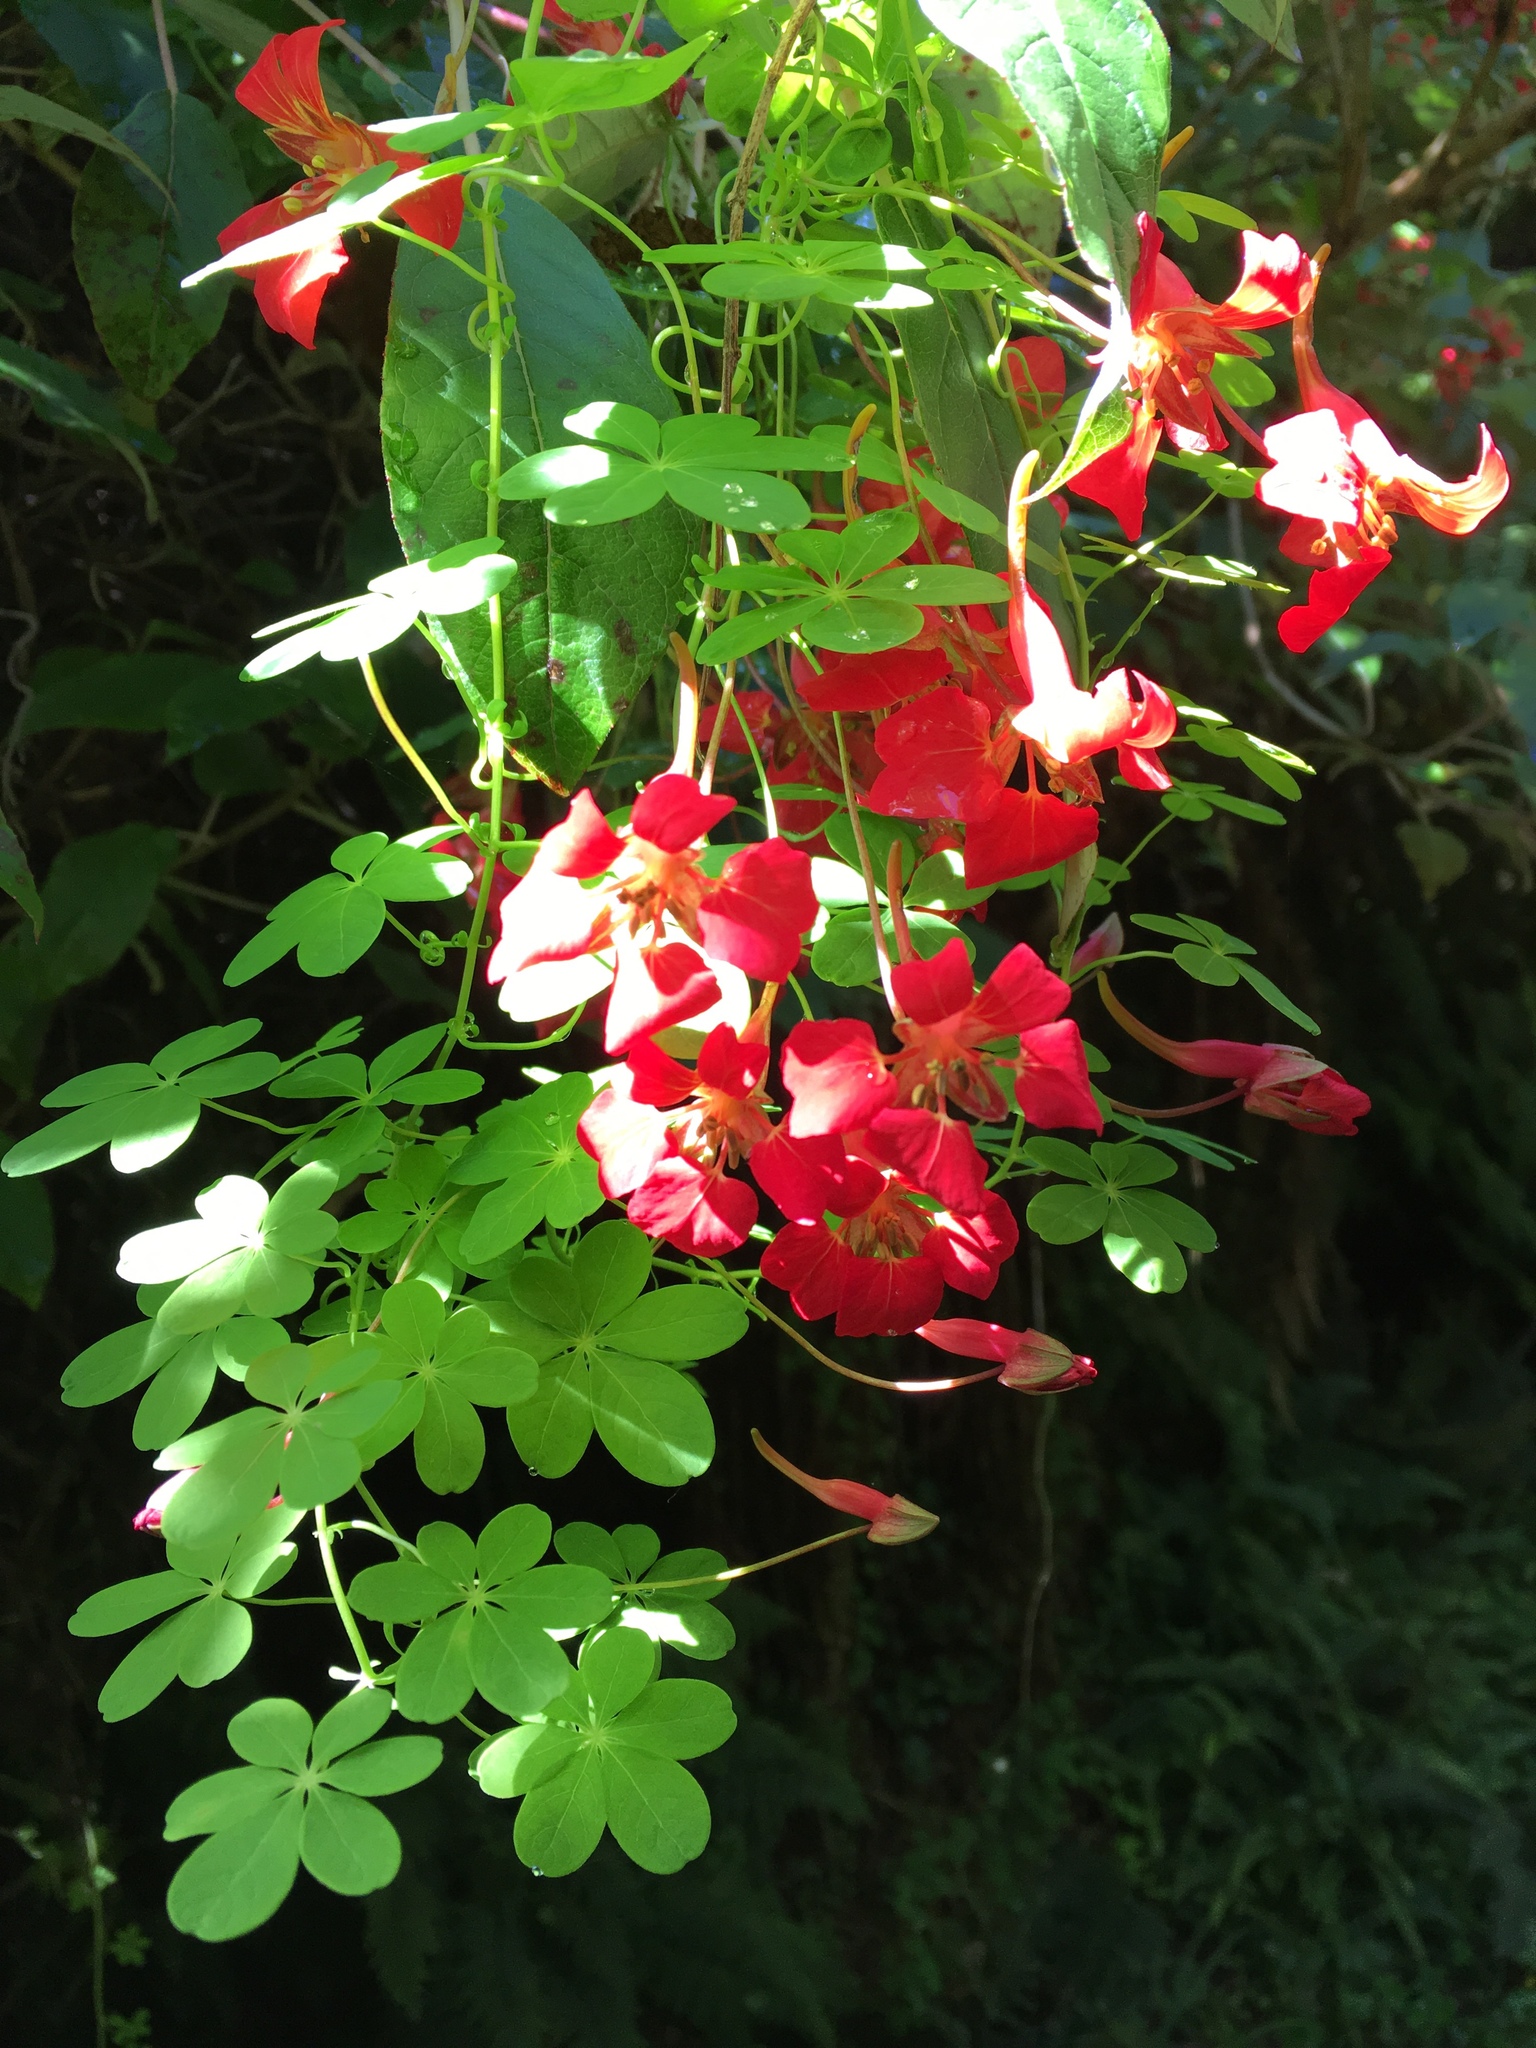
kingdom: Plantae
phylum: Tracheophyta
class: Magnoliopsida
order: Brassicales
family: Tropaeolaceae
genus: Tropaeolum
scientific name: Tropaeolum speciosum
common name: Flame nasturtium
